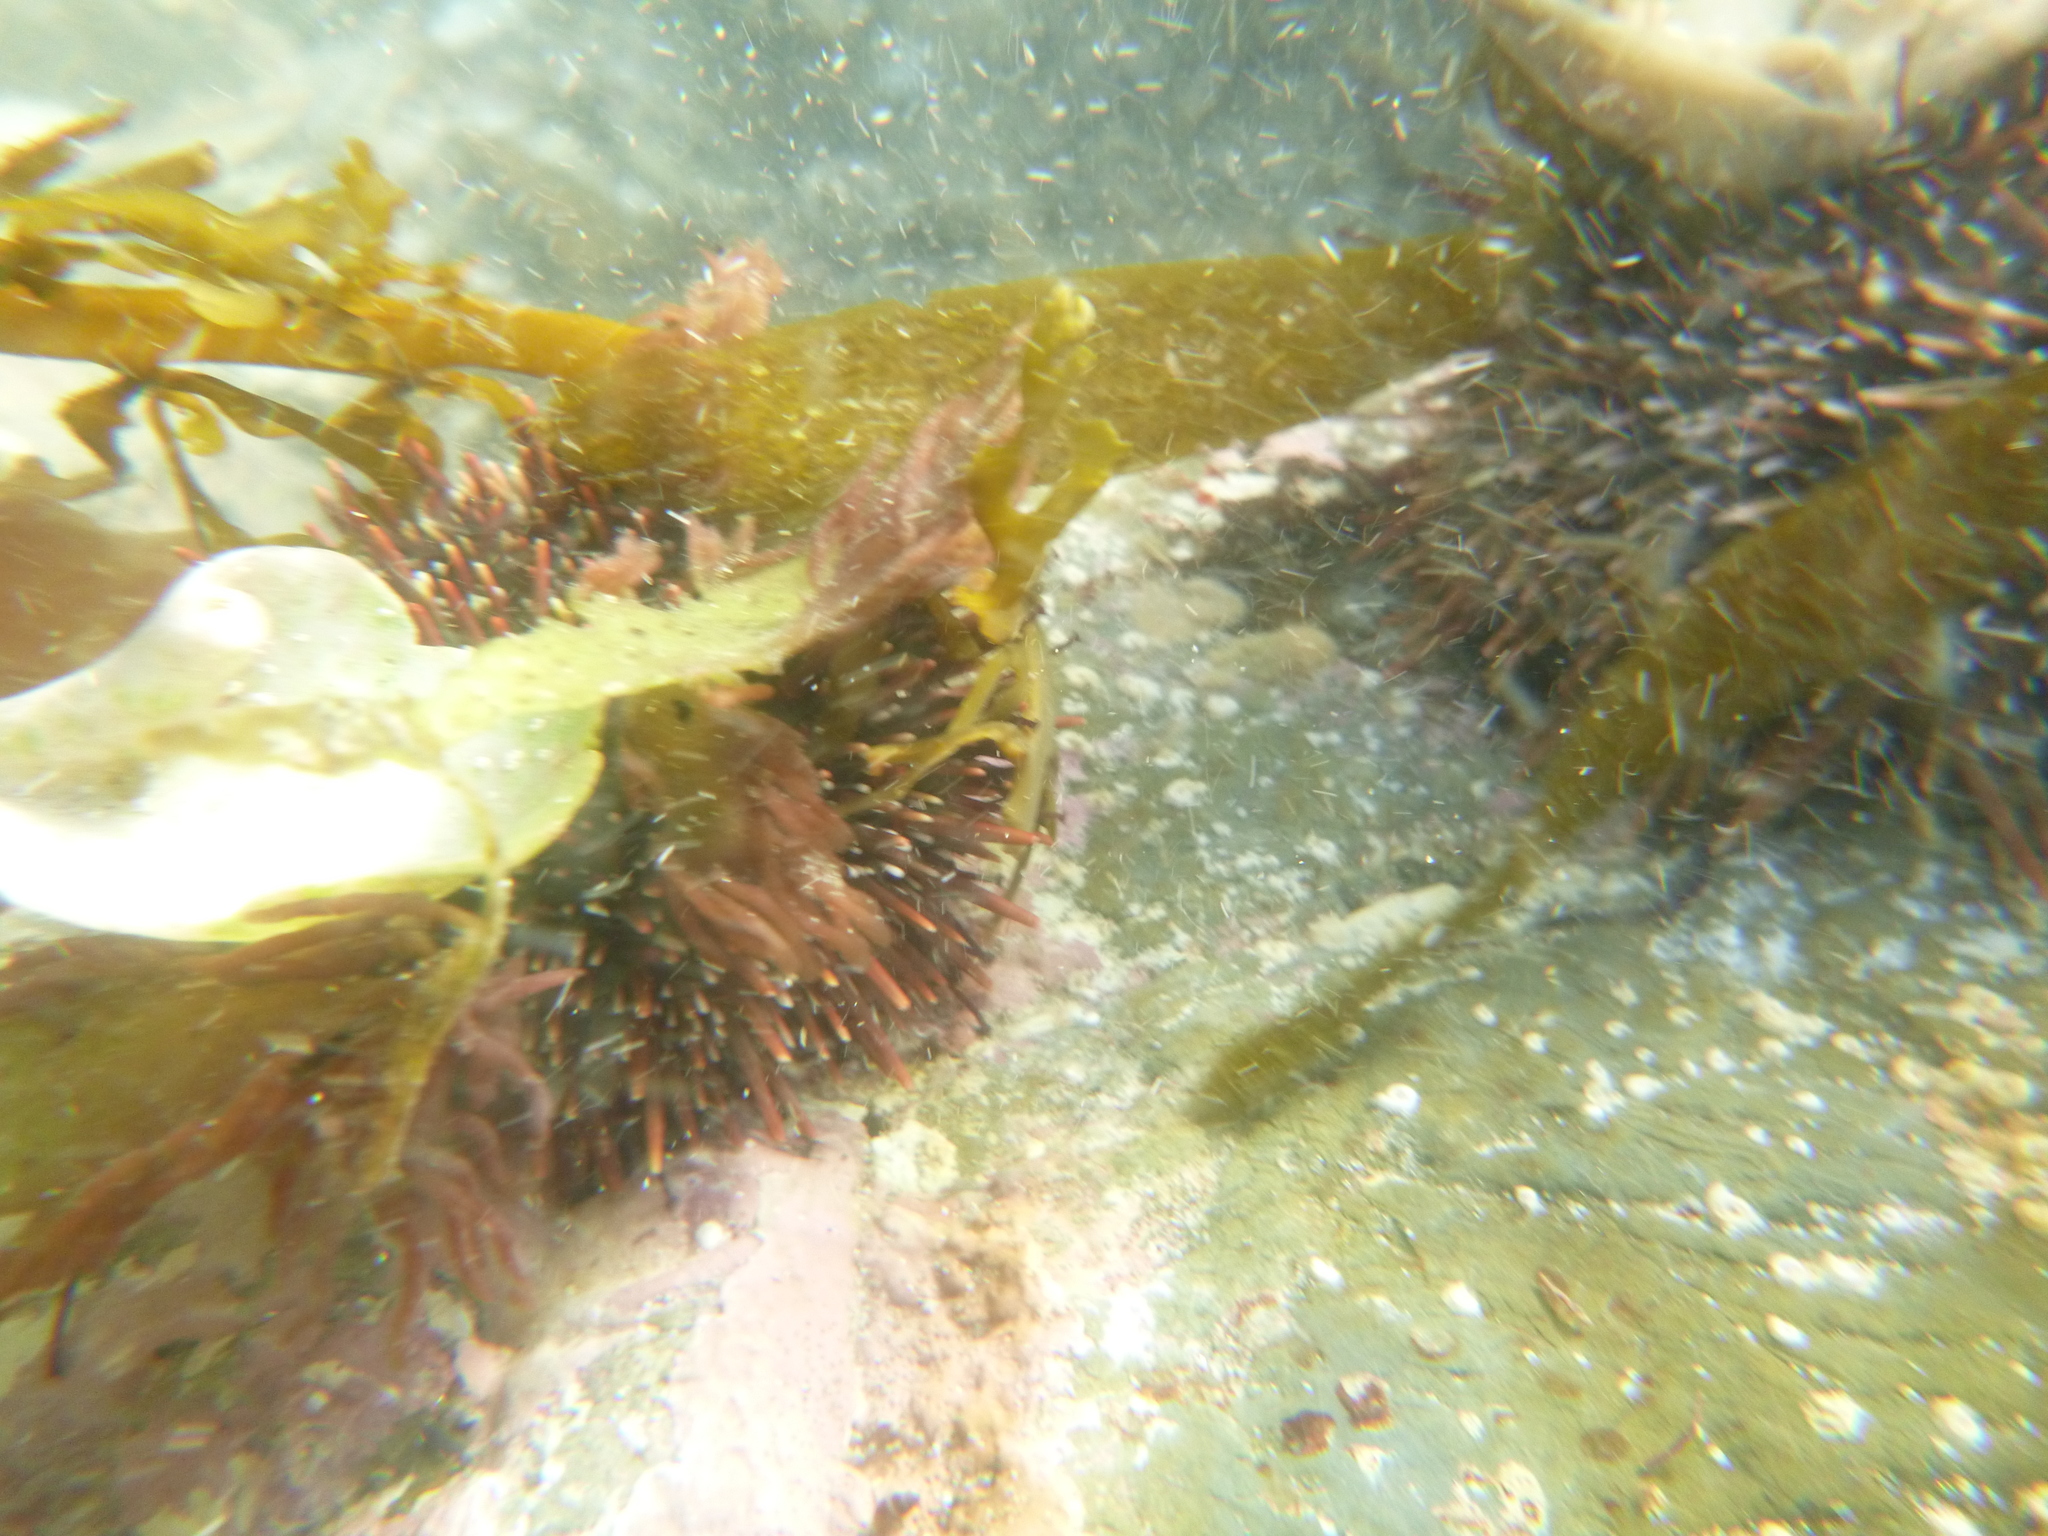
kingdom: Animalia
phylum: Echinodermata
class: Echinoidea
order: Camarodonta
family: Echinometridae
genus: Evechinus
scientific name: Evechinus chloroticus
